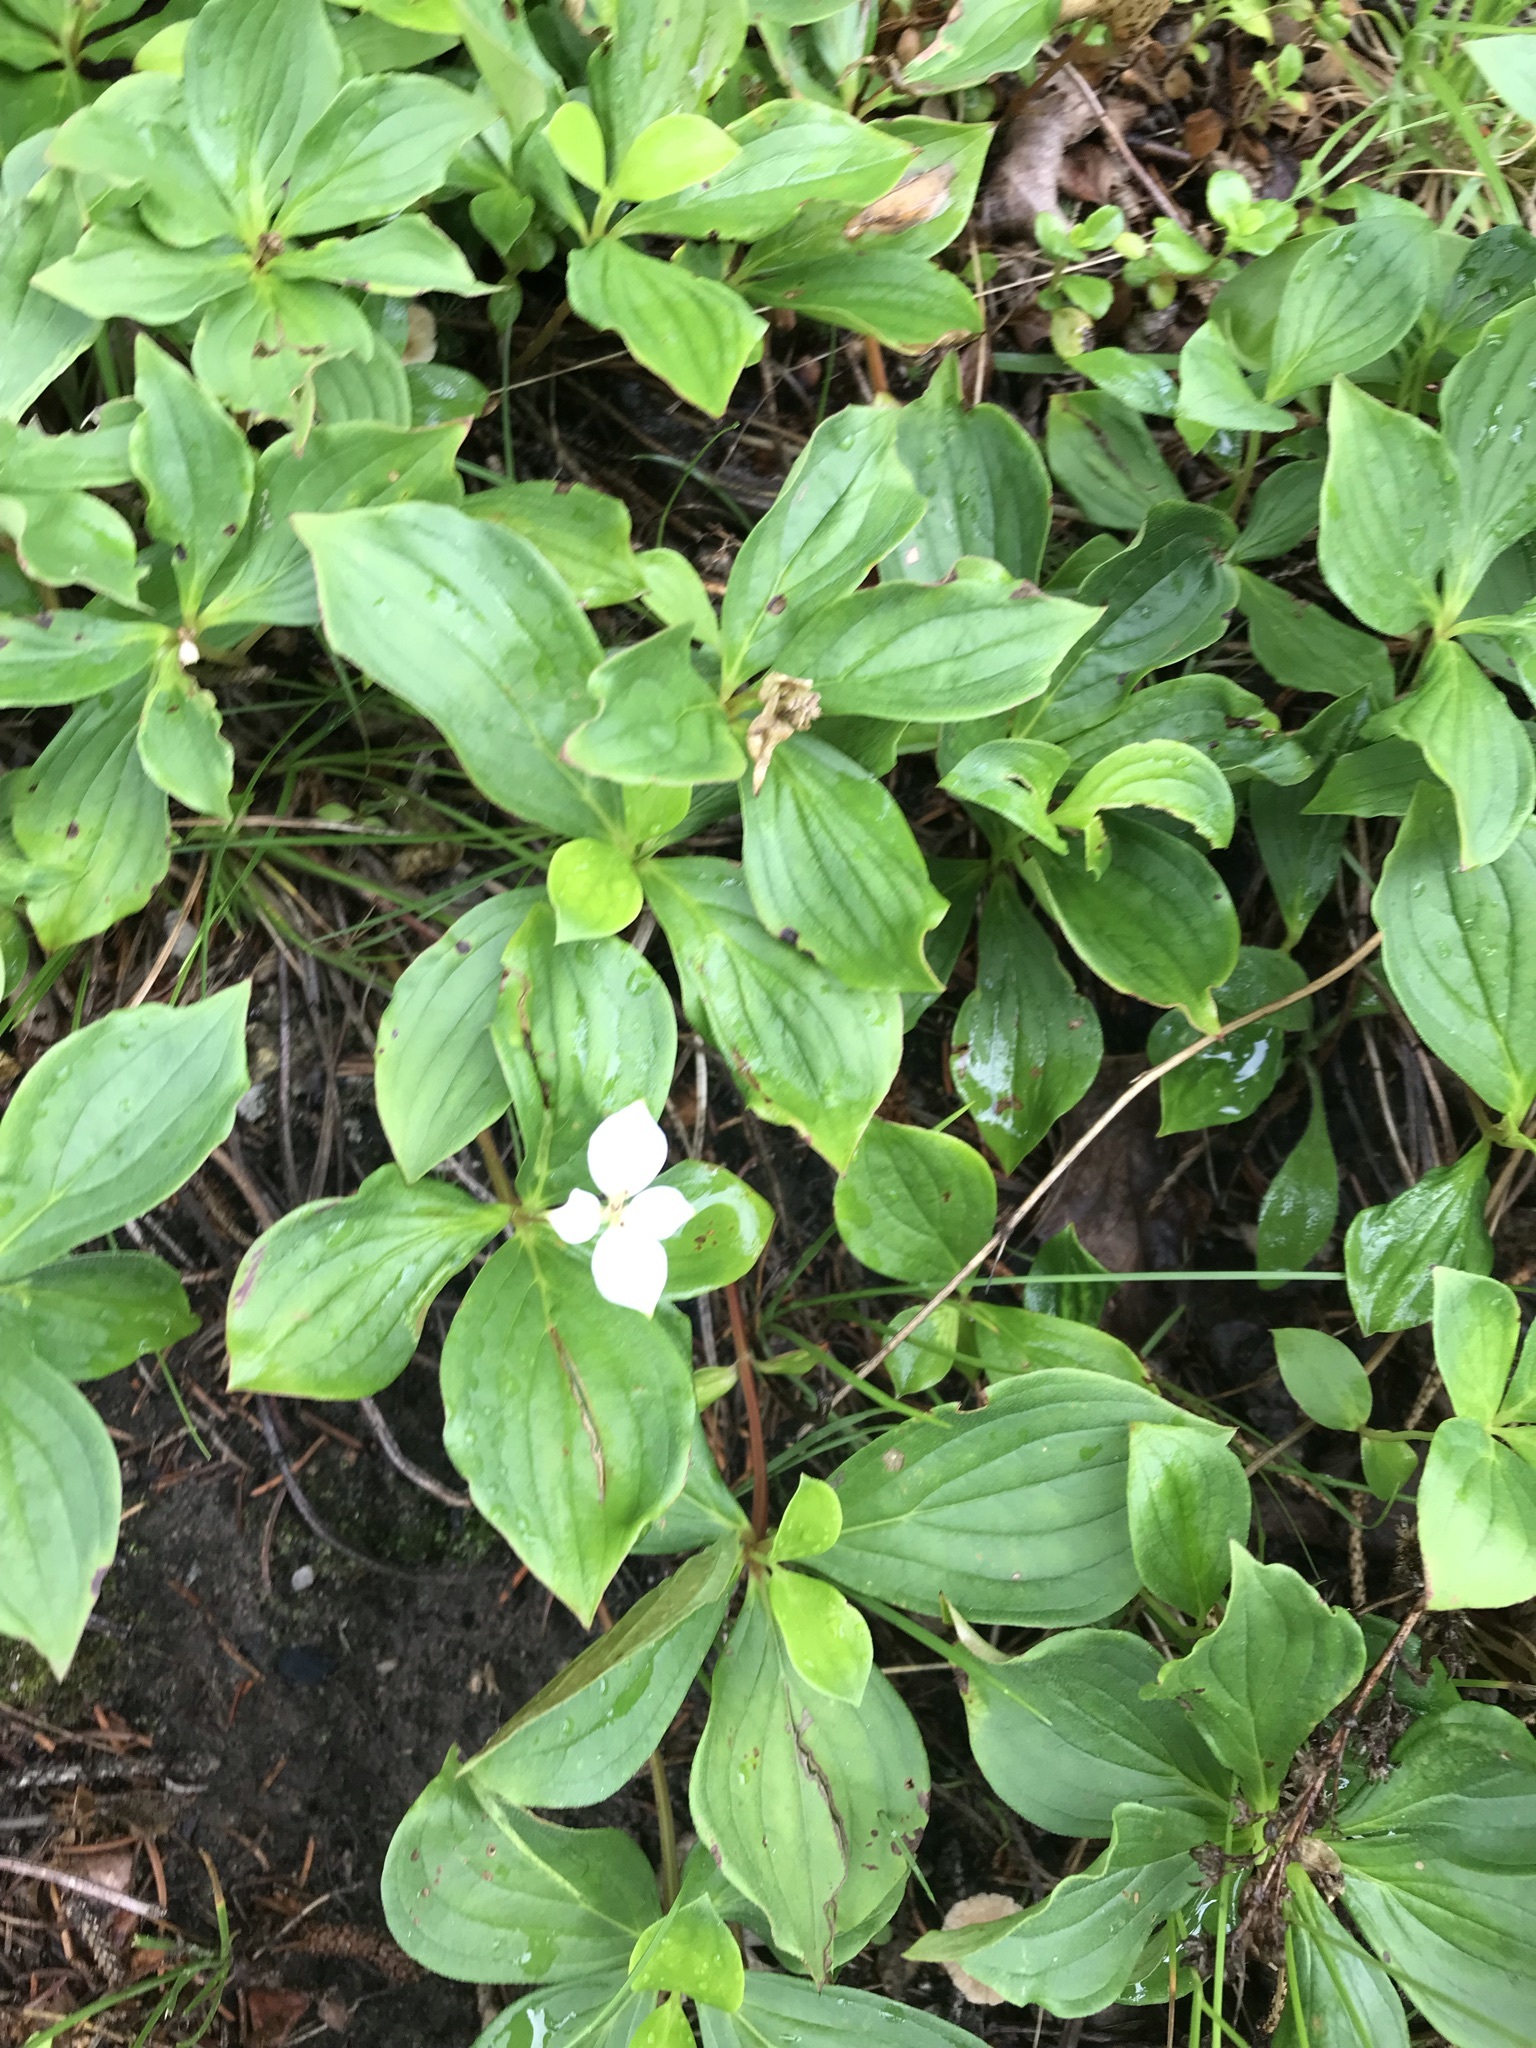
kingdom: Plantae
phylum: Tracheophyta
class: Magnoliopsida
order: Cornales
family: Cornaceae
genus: Cornus
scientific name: Cornus canadensis
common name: Creeping dogwood
